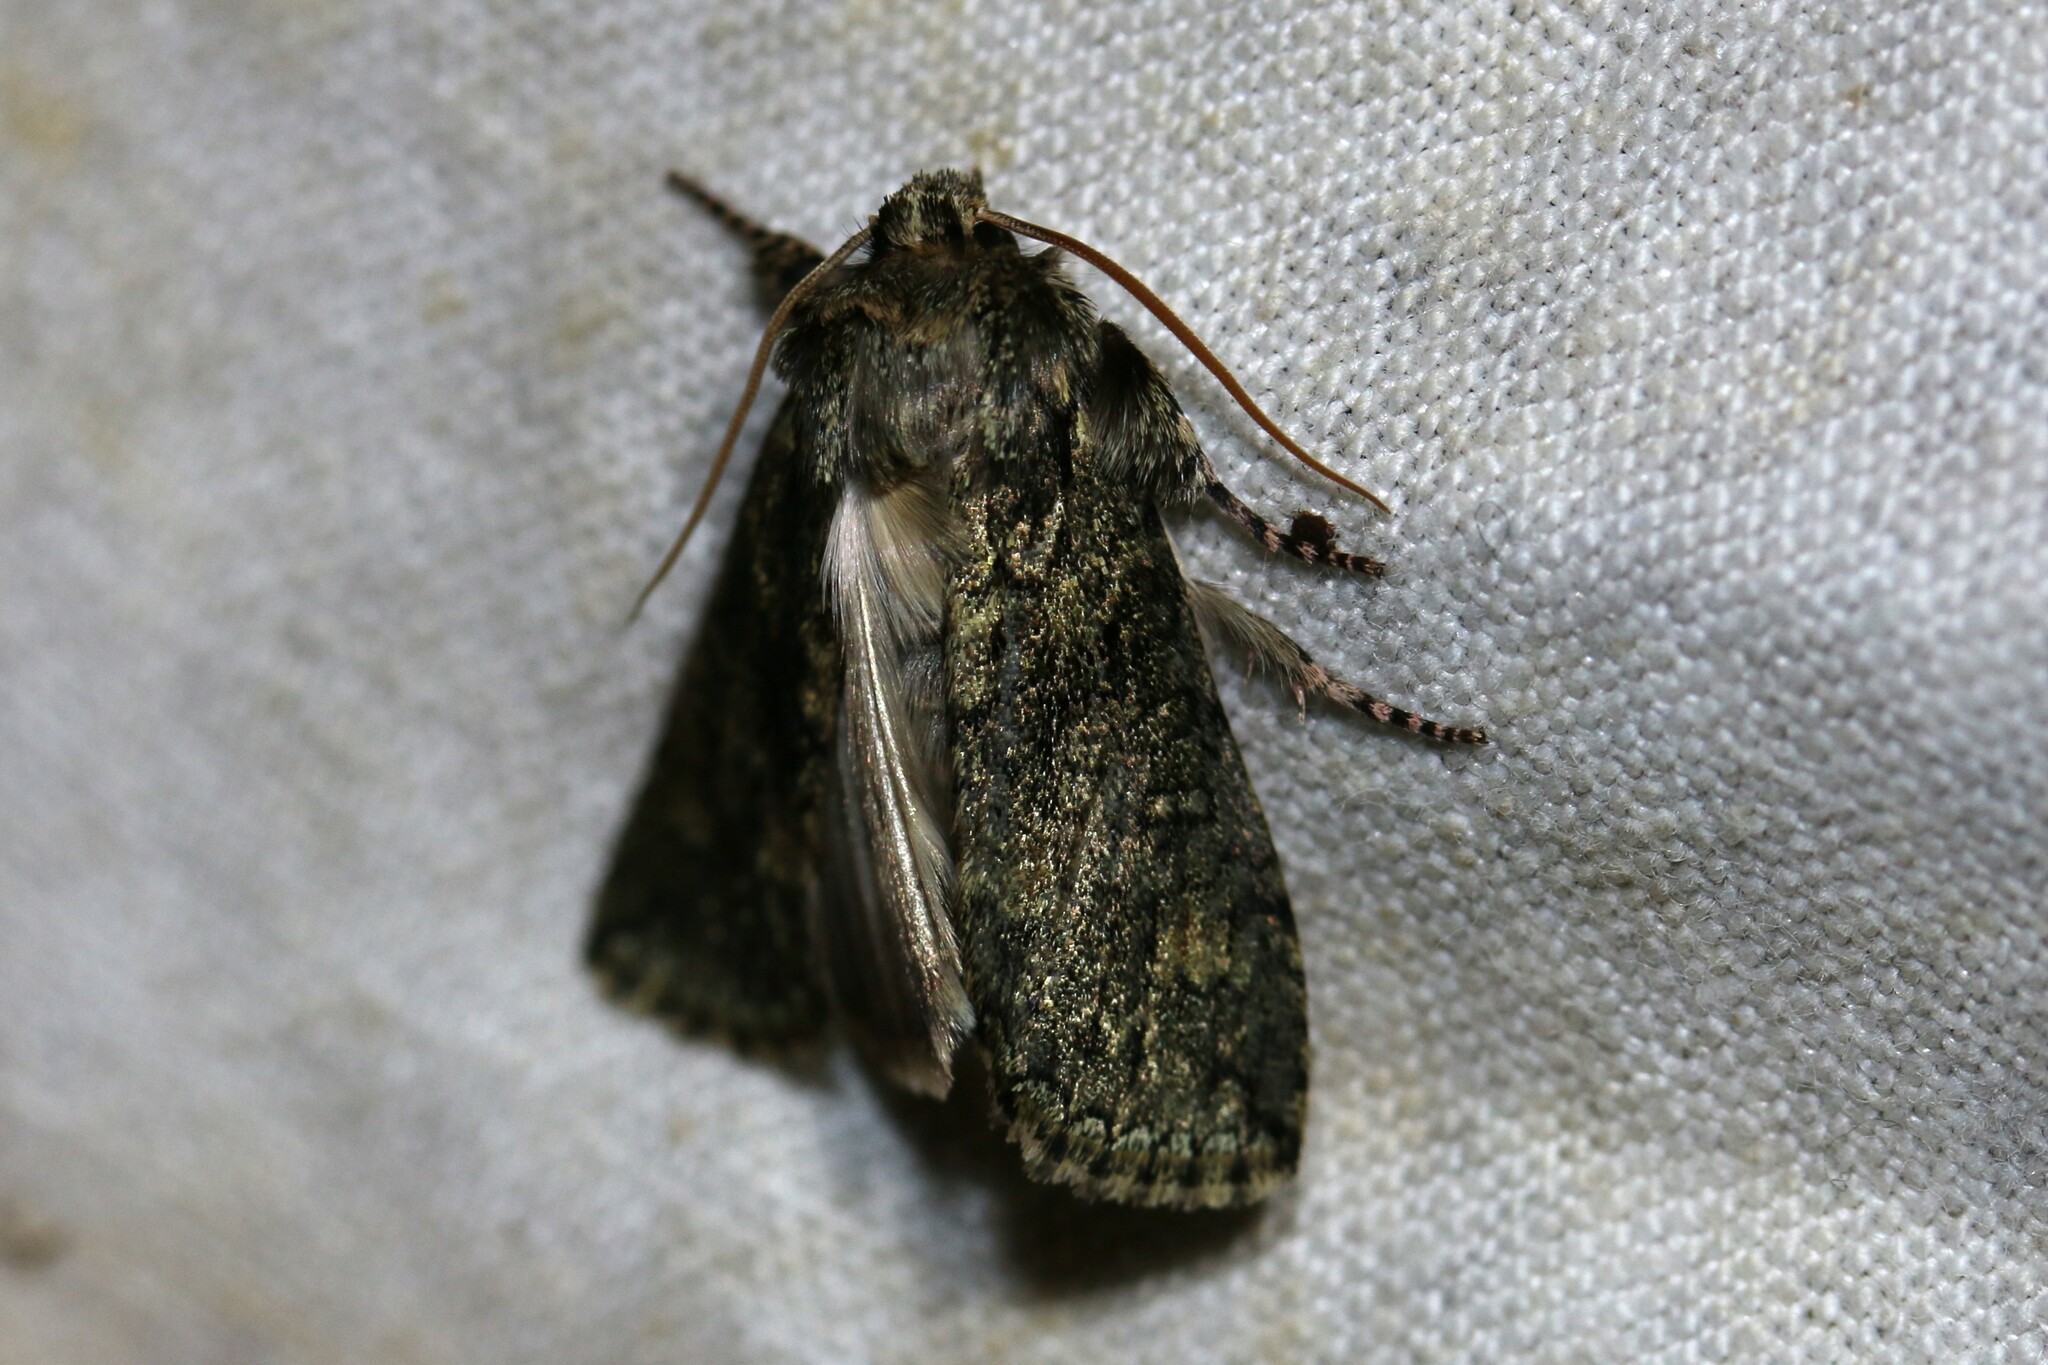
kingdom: Animalia
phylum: Arthropoda
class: Insecta
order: Lepidoptera
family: Drepanidae
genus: Polyploca
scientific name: Polyploca ridens
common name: Frosted green
